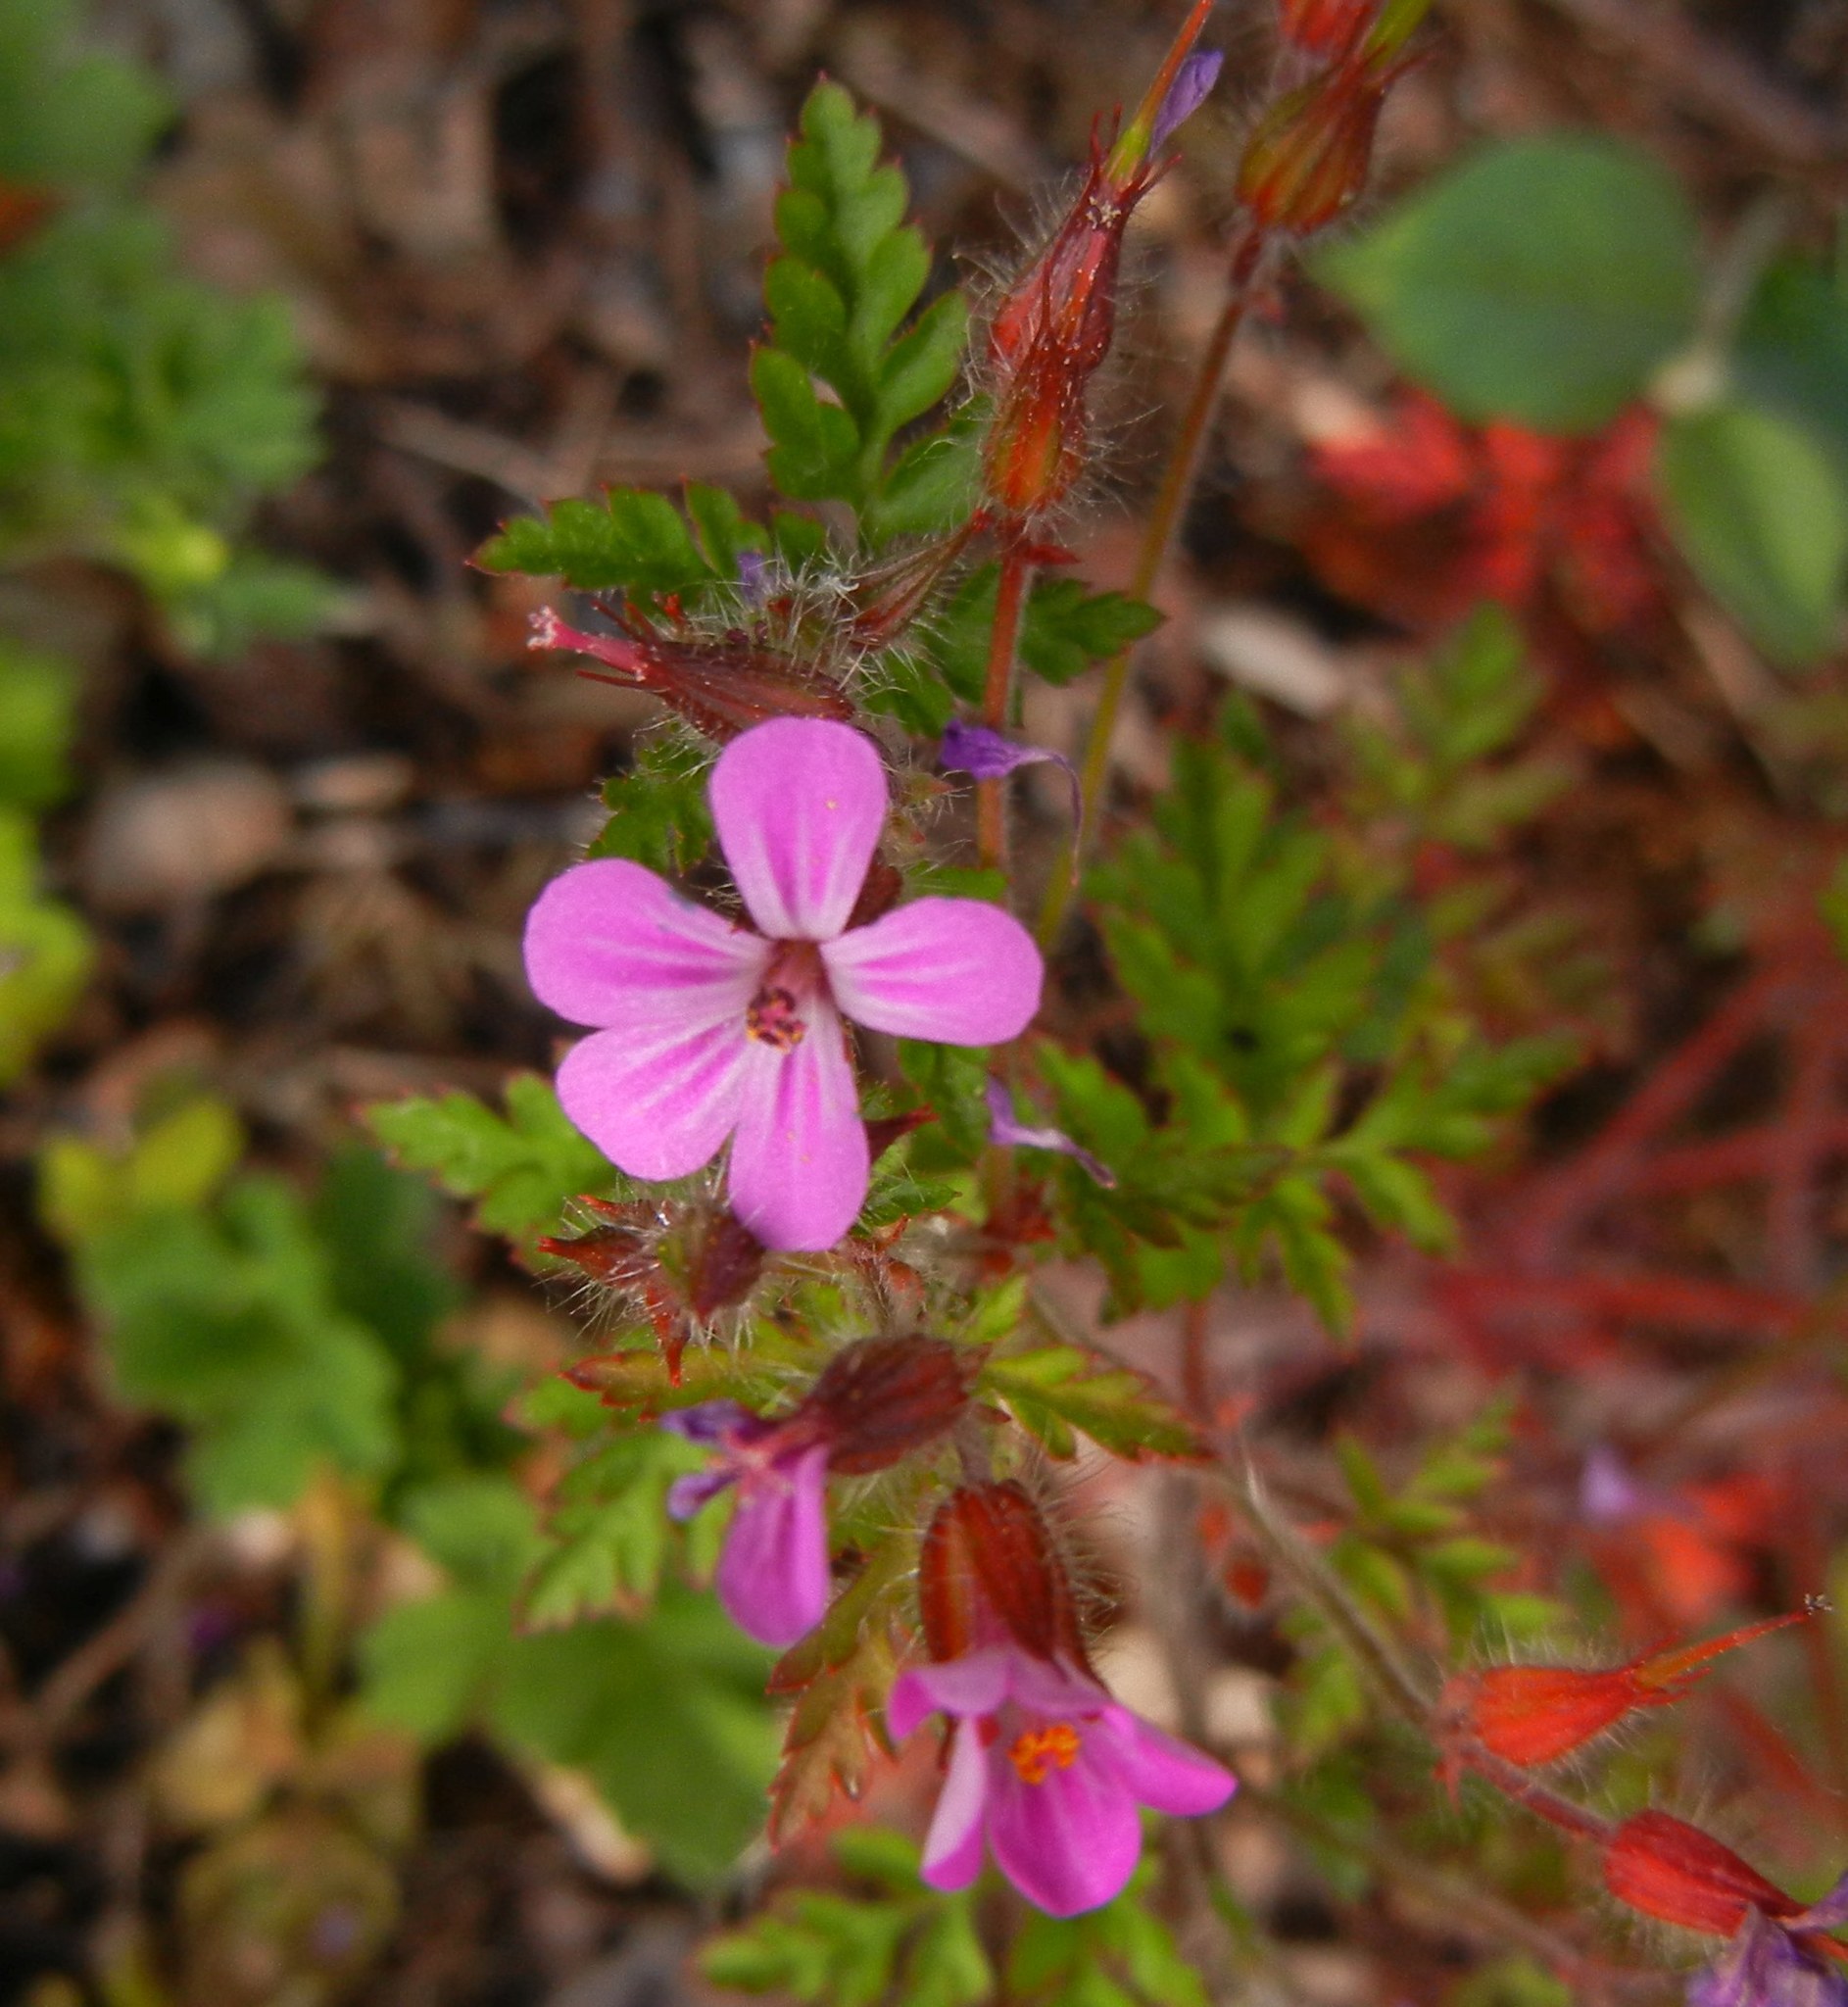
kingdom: Plantae
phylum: Tracheophyta
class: Magnoliopsida
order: Geraniales
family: Geraniaceae
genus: Geranium
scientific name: Geranium robertianum
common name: Herb-robert
